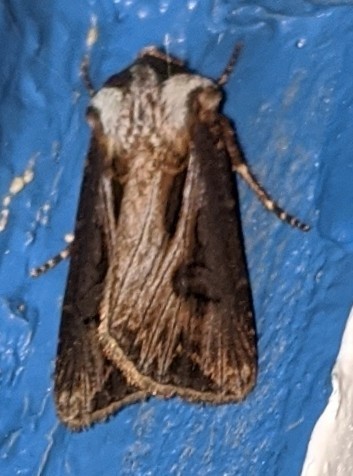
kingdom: Animalia
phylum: Arthropoda
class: Insecta
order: Lepidoptera
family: Noctuidae
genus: Agrotis
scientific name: Agrotis venerabilis
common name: Venerable dart
